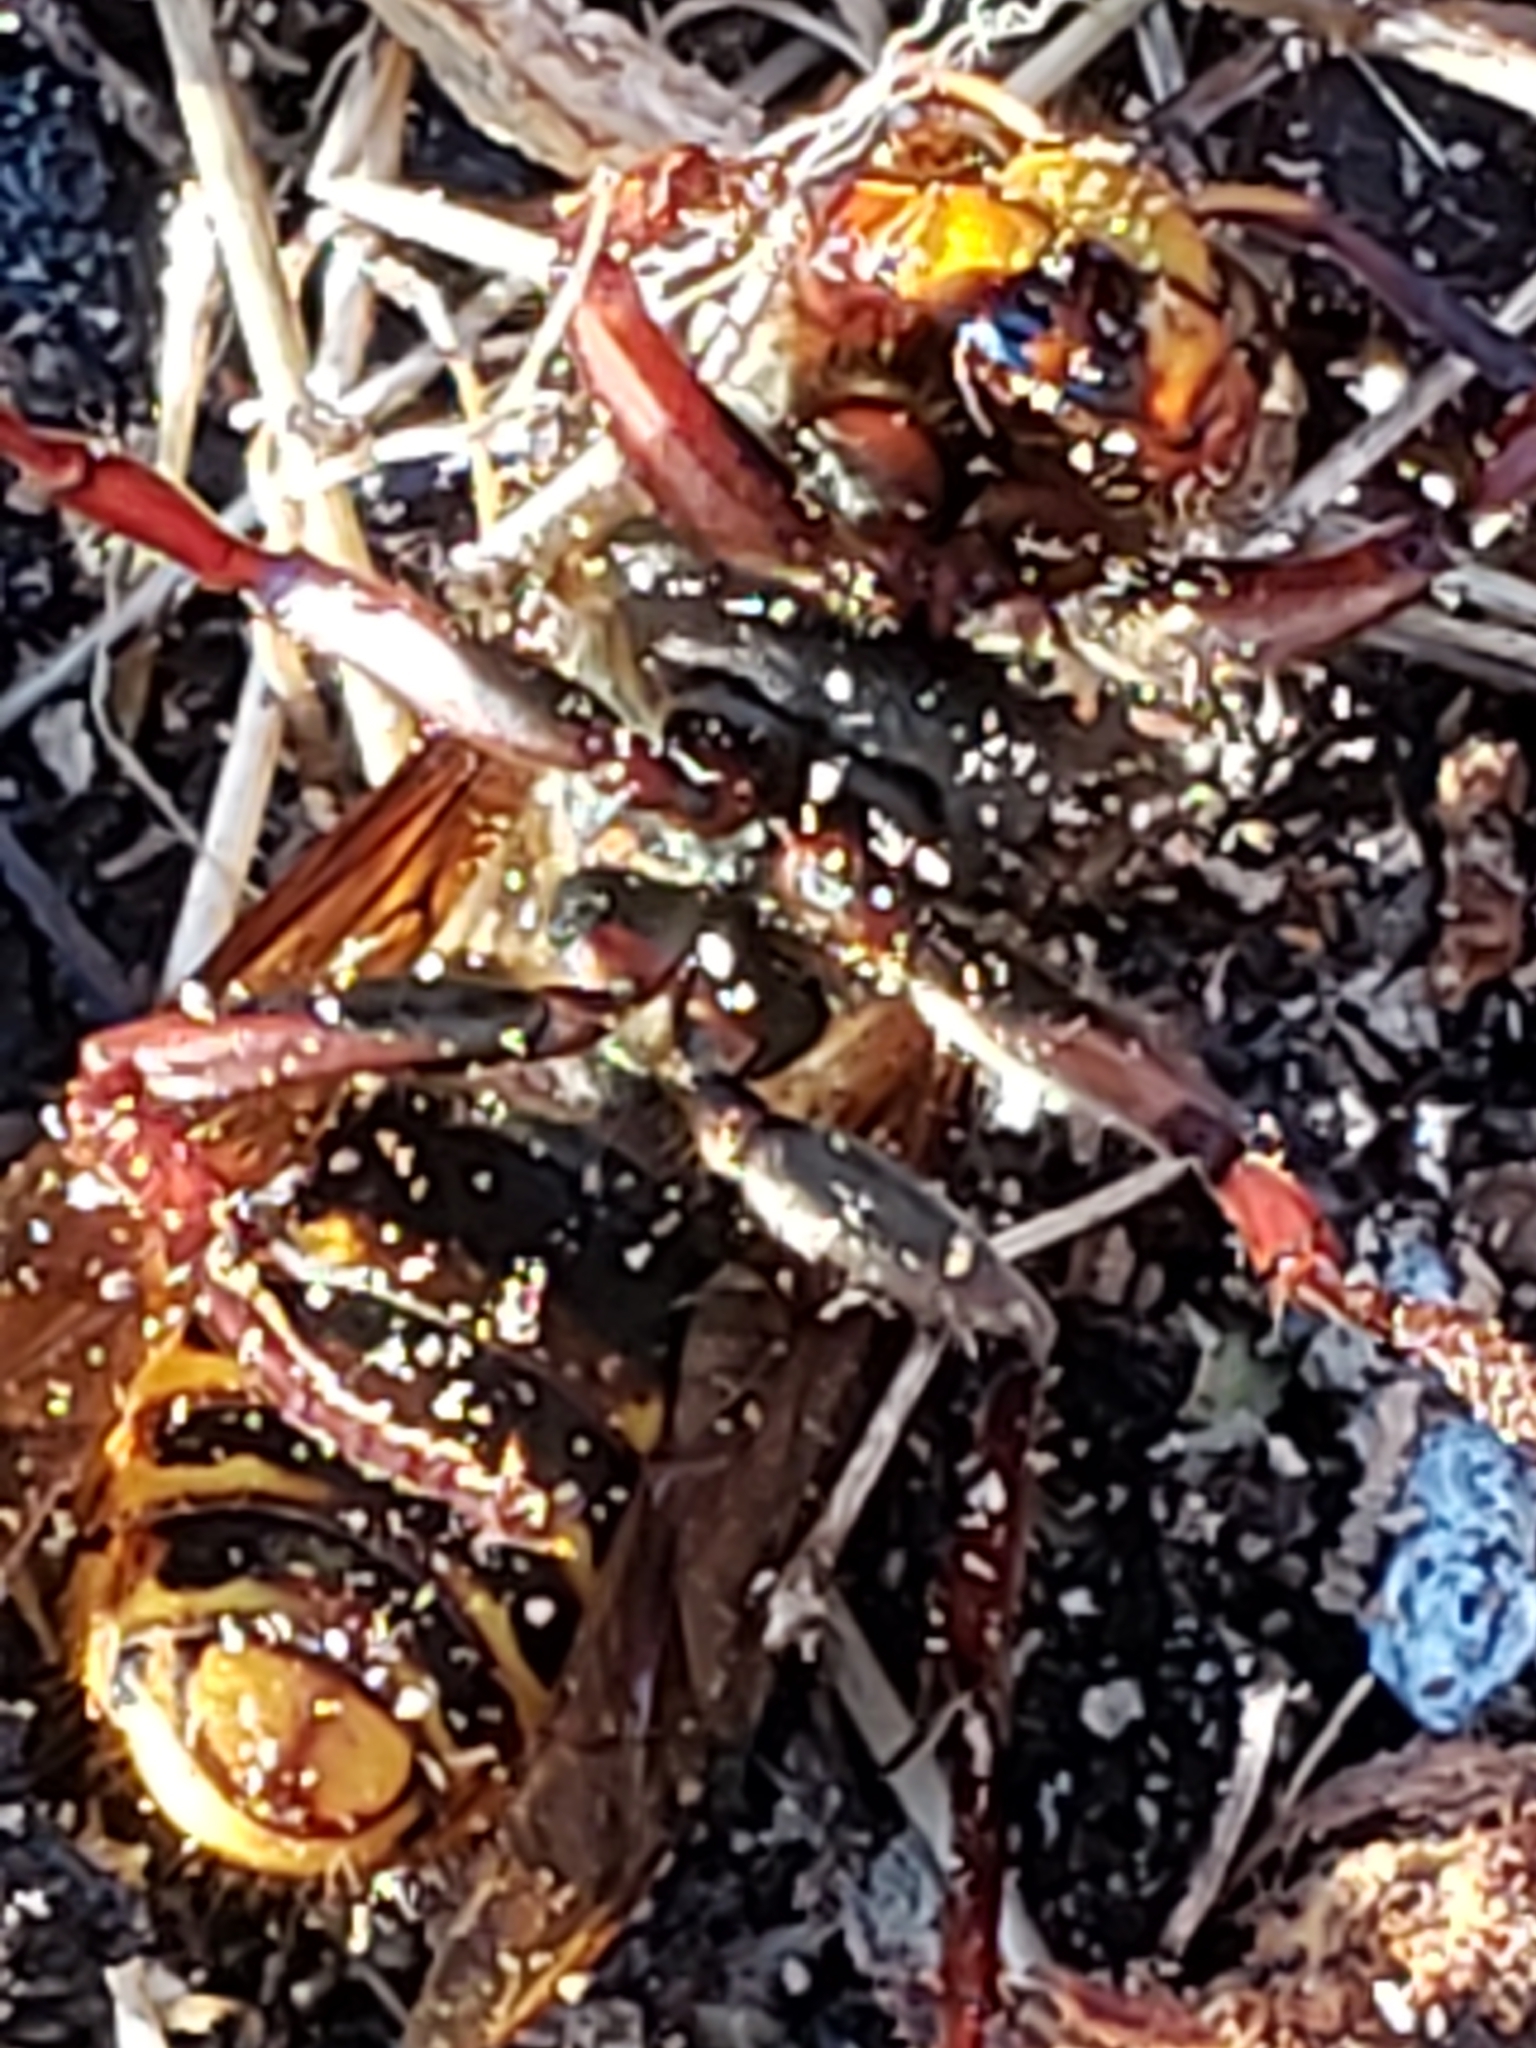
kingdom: Animalia
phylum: Arthropoda
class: Insecta
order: Hymenoptera
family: Vespidae
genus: Vespa
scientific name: Vespa crabro
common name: Hornet
